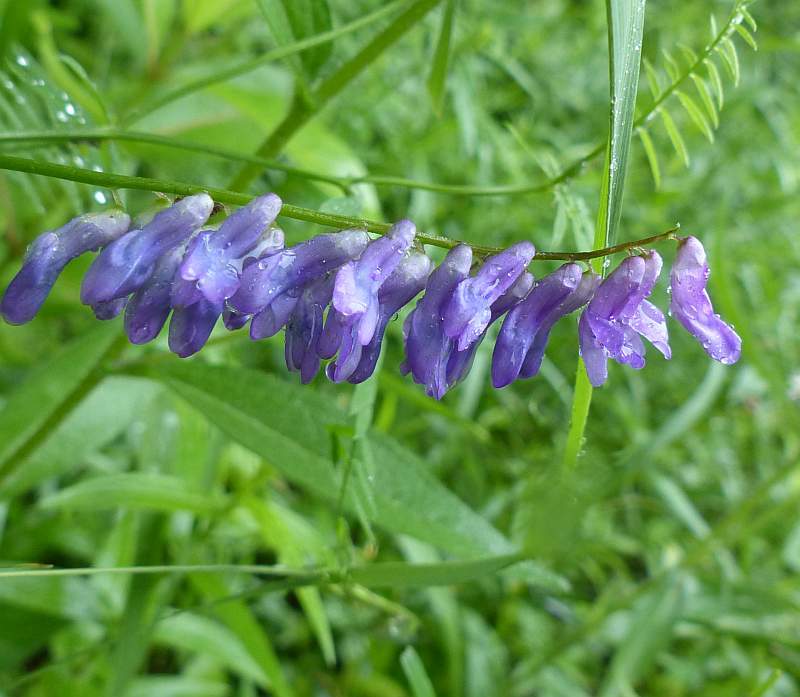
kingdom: Plantae
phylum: Tracheophyta
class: Magnoliopsida
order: Fabales
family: Fabaceae
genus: Vicia
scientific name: Vicia cracca
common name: Bird vetch
